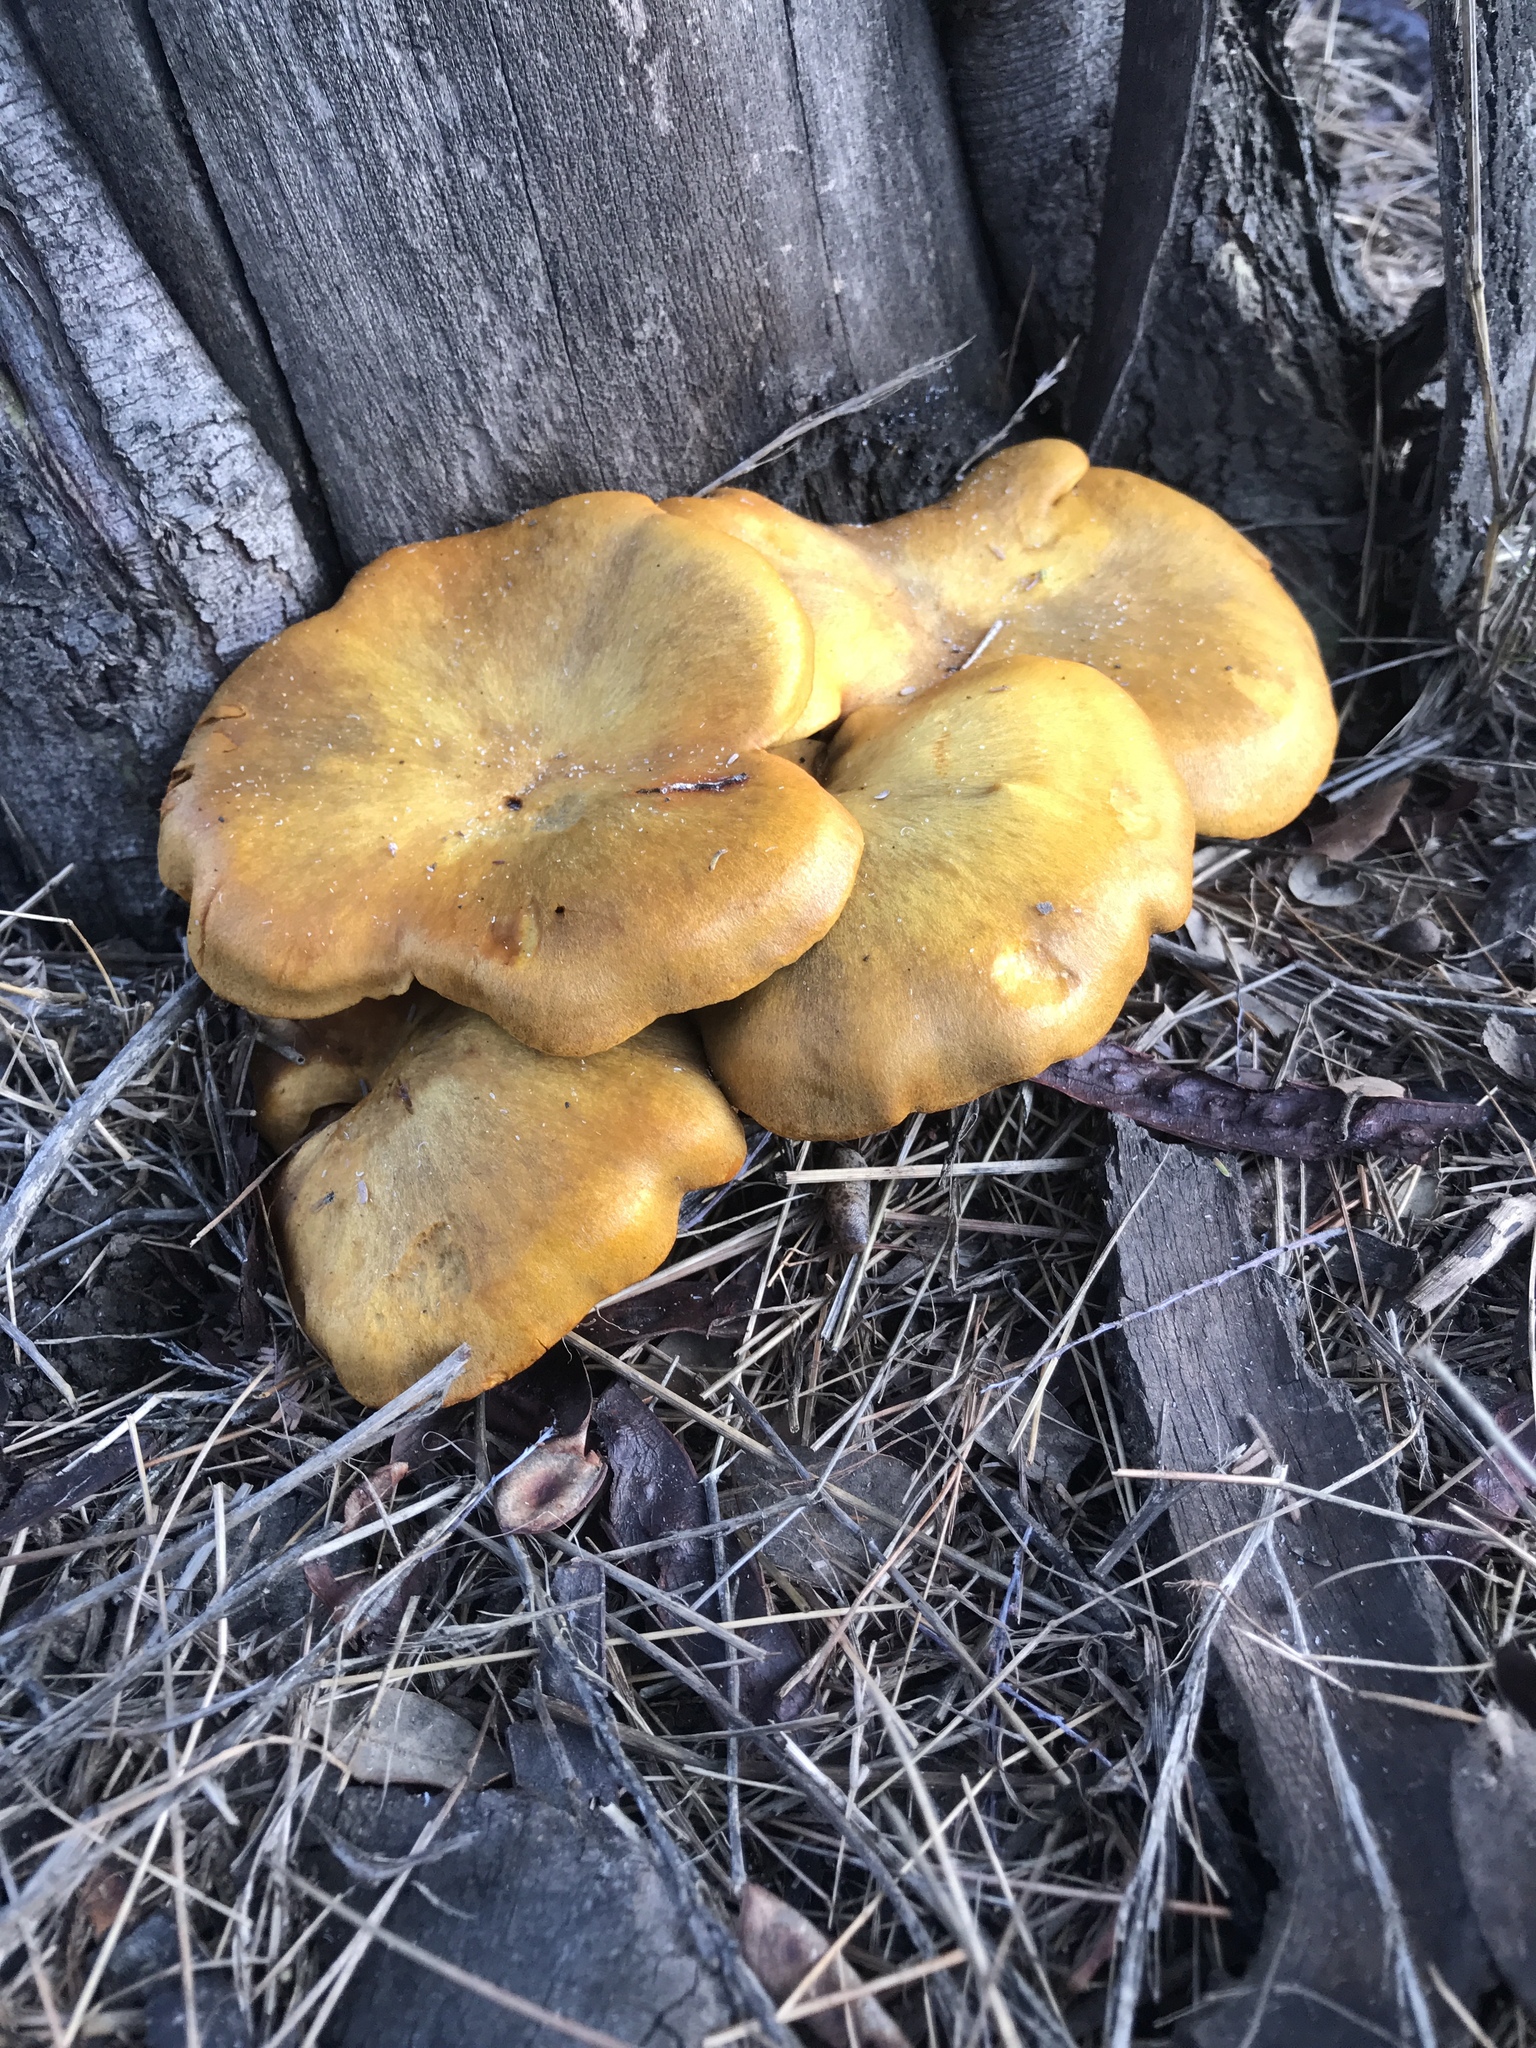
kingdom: Fungi
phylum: Basidiomycota
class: Agaricomycetes
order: Agaricales
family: Omphalotaceae
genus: Omphalotus
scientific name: Omphalotus olivascens
